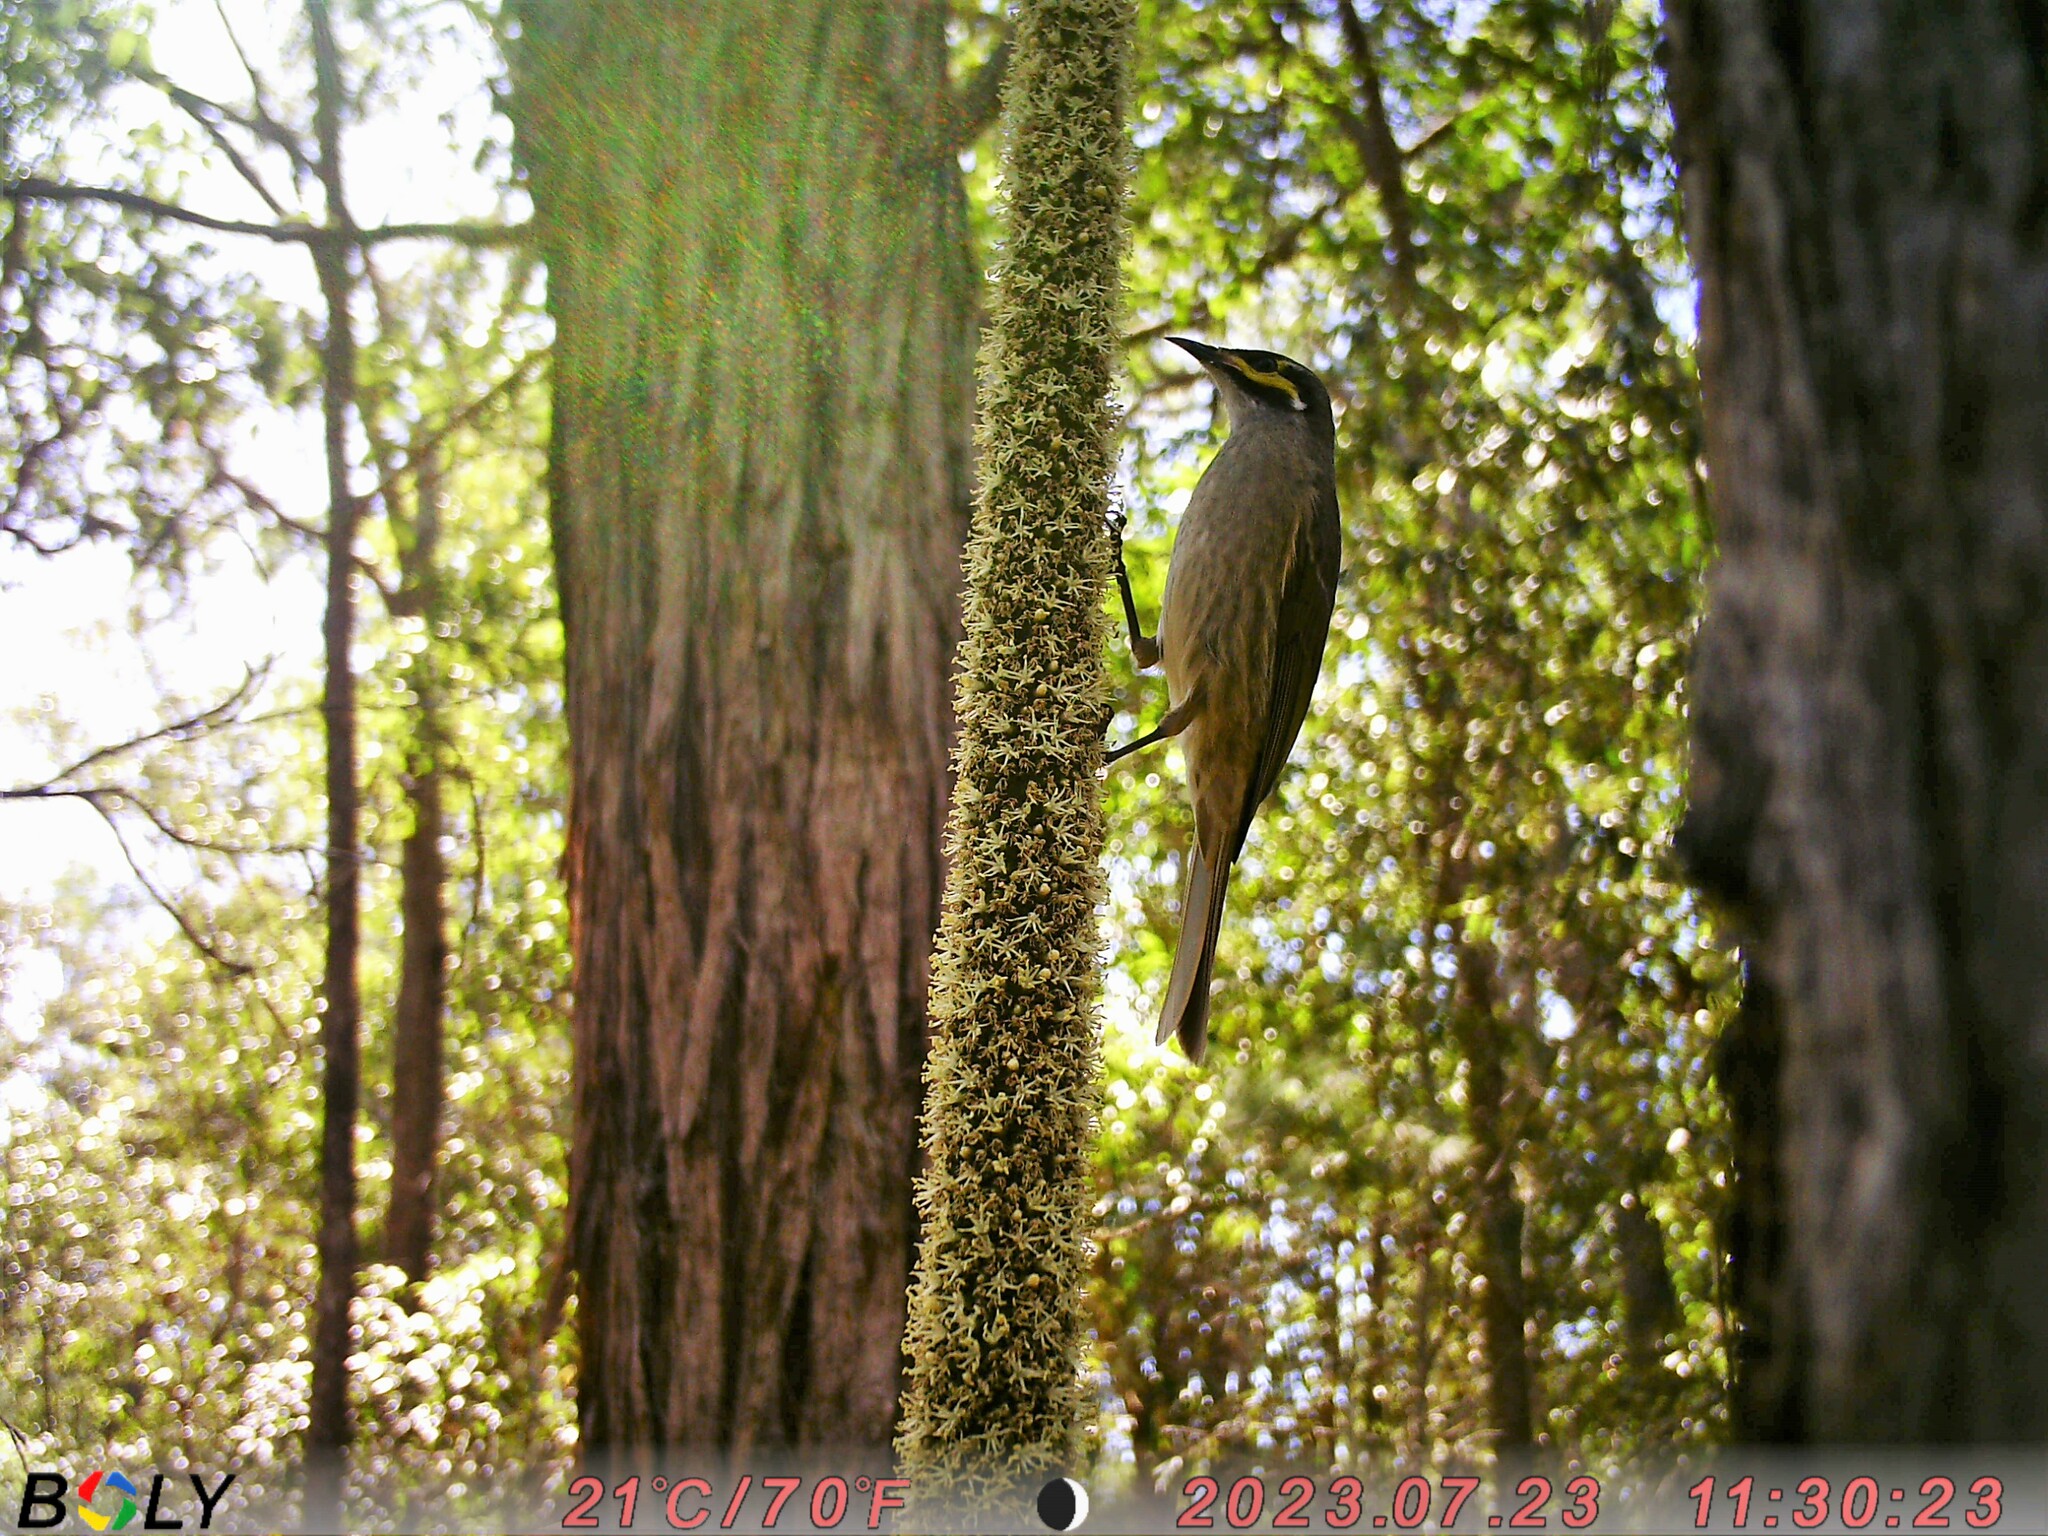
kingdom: Animalia
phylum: Chordata
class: Aves
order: Passeriformes
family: Meliphagidae
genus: Caligavis
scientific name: Caligavis chrysops
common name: Yellow-faced honeyeater
